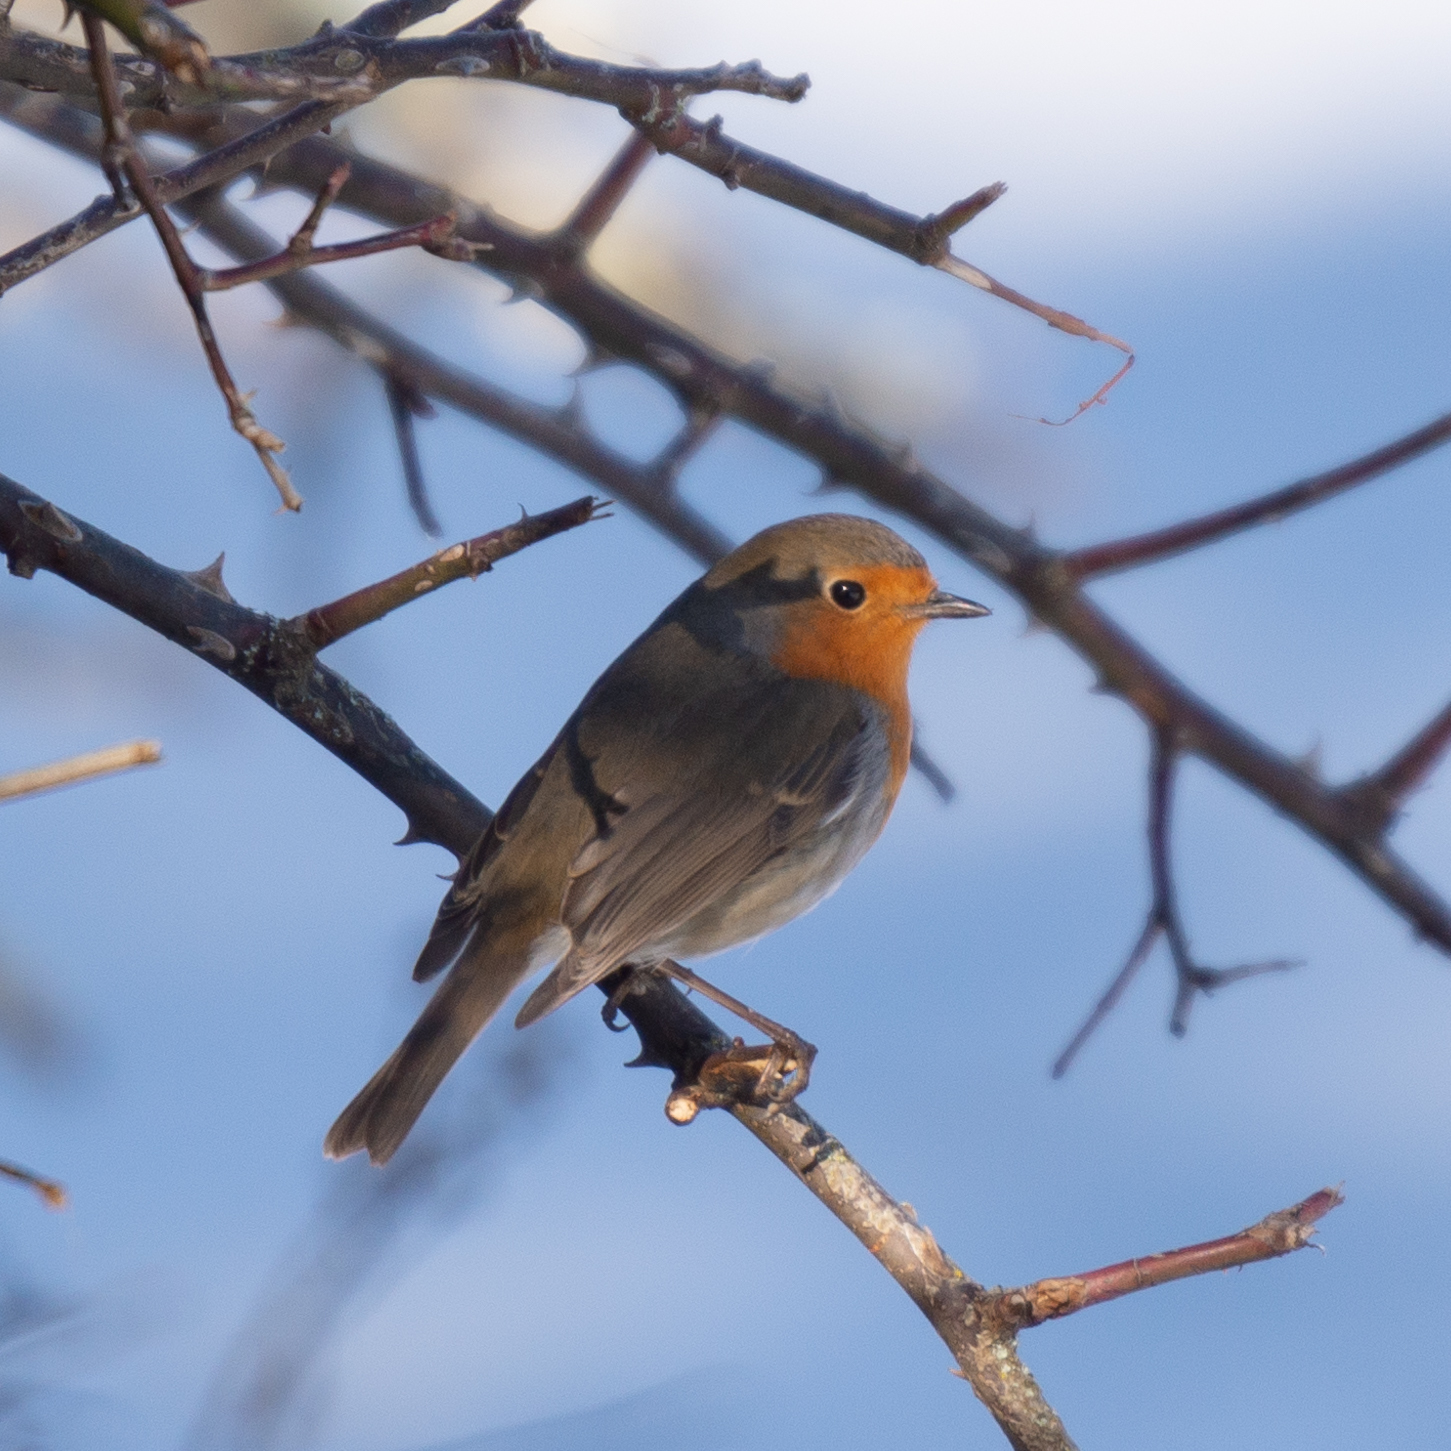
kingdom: Animalia
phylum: Chordata
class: Aves
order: Passeriformes
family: Muscicapidae
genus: Erithacus
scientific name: Erithacus rubecula
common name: European robin
